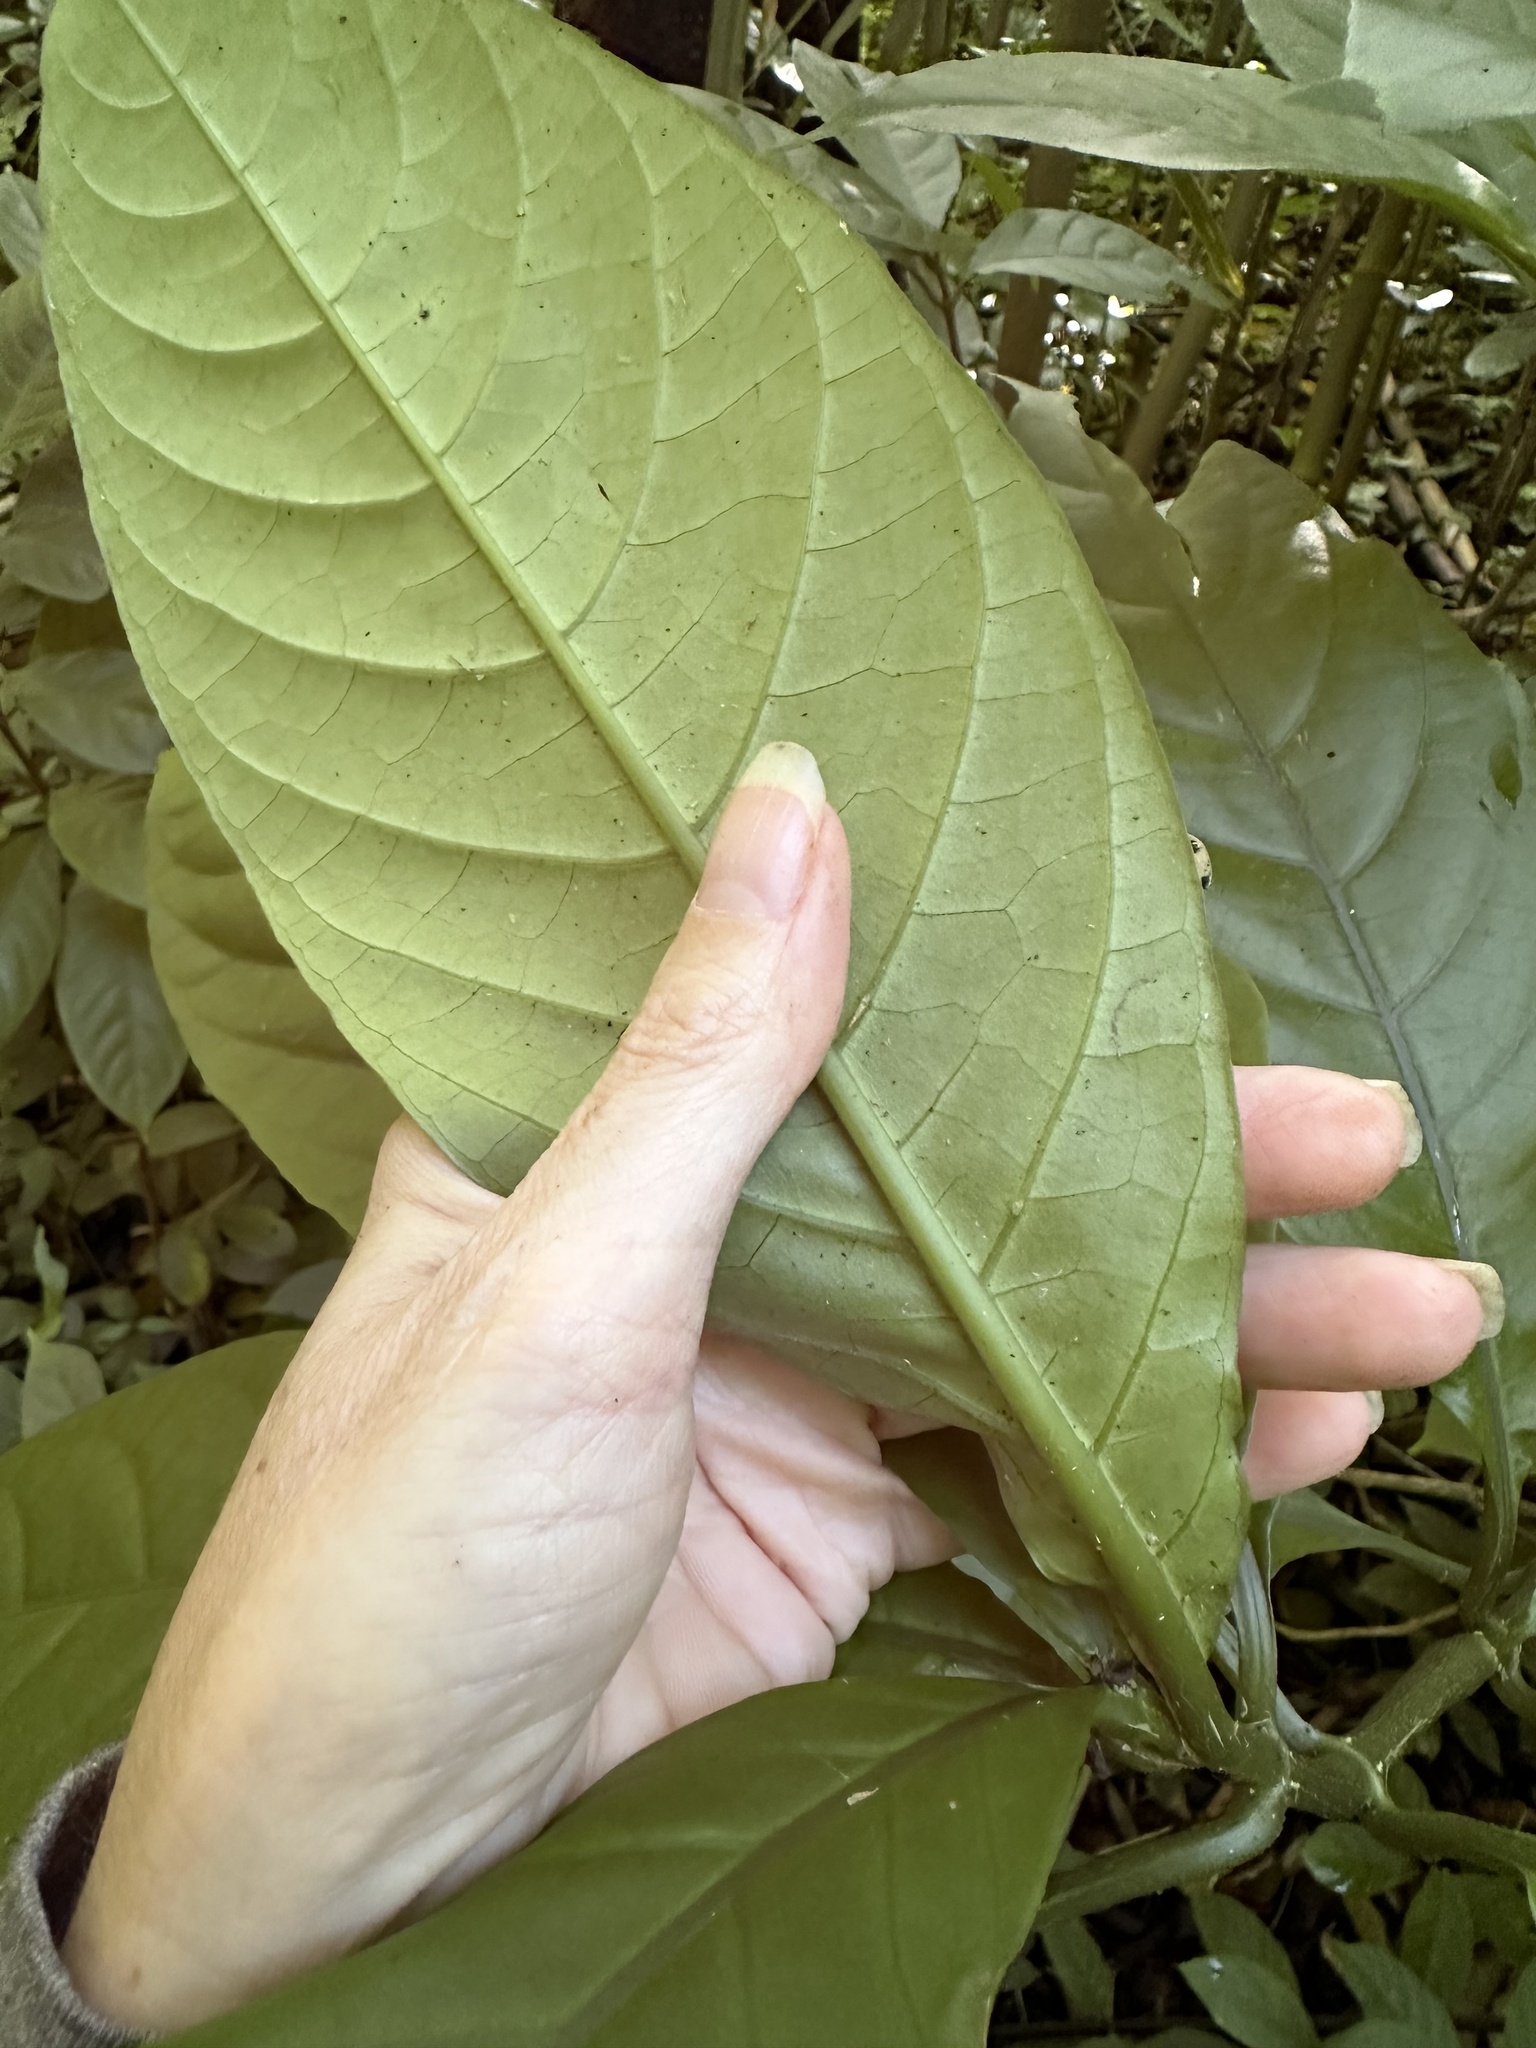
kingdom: Plantae
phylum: Tracheophyta
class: Magnoliopsida
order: Lamiales
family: Acanthaceae
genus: Odontonema
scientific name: Odontonema cuspidatum
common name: Mottled toothedthread
